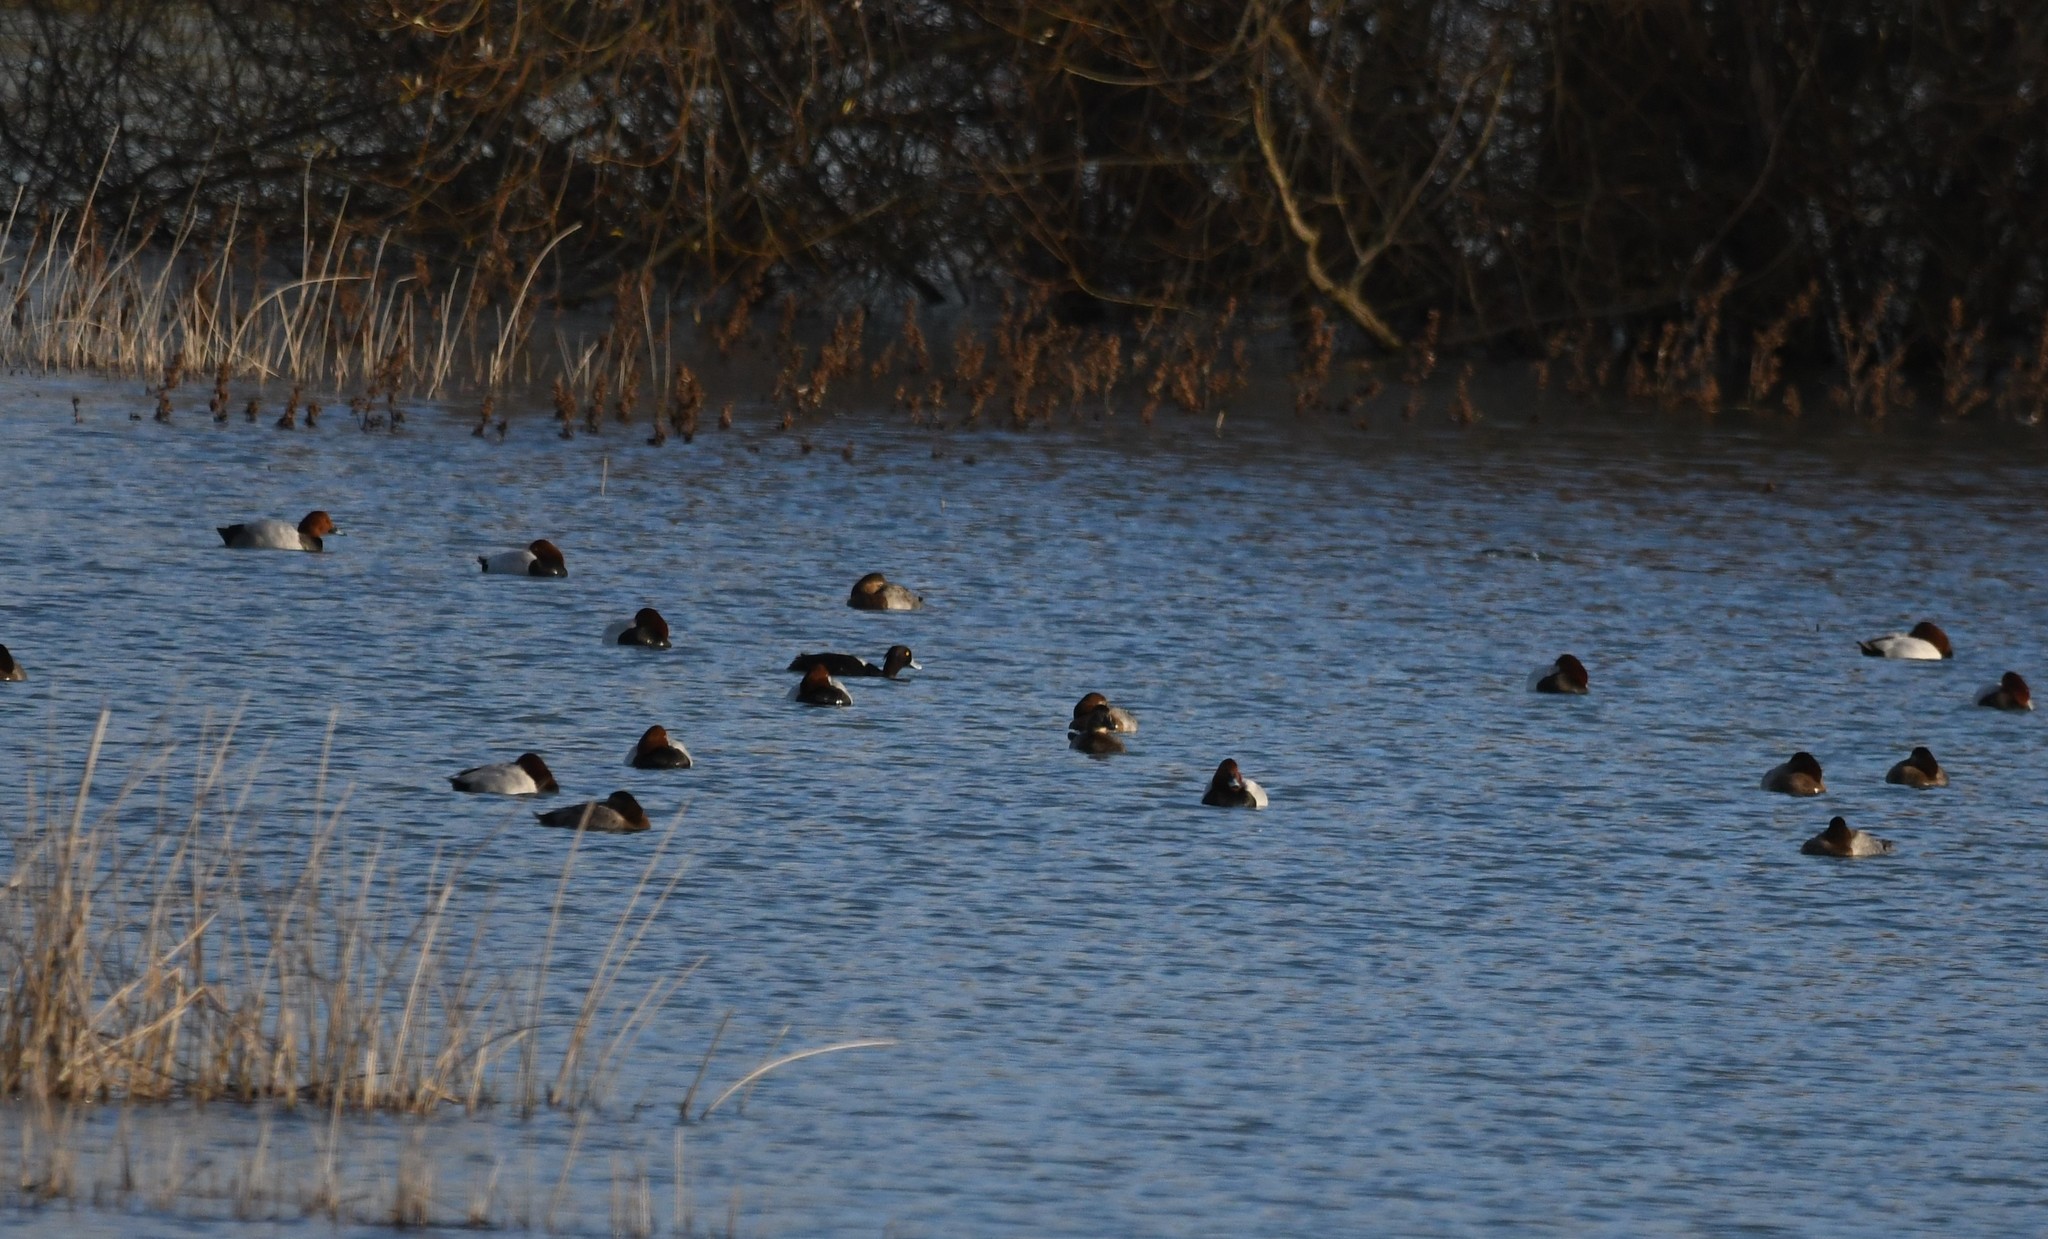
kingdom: Animalia
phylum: Chordata
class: Aves
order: Anseriformes
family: Anatidae
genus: Aythya
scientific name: Aythya fuligula
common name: Tufted duck
